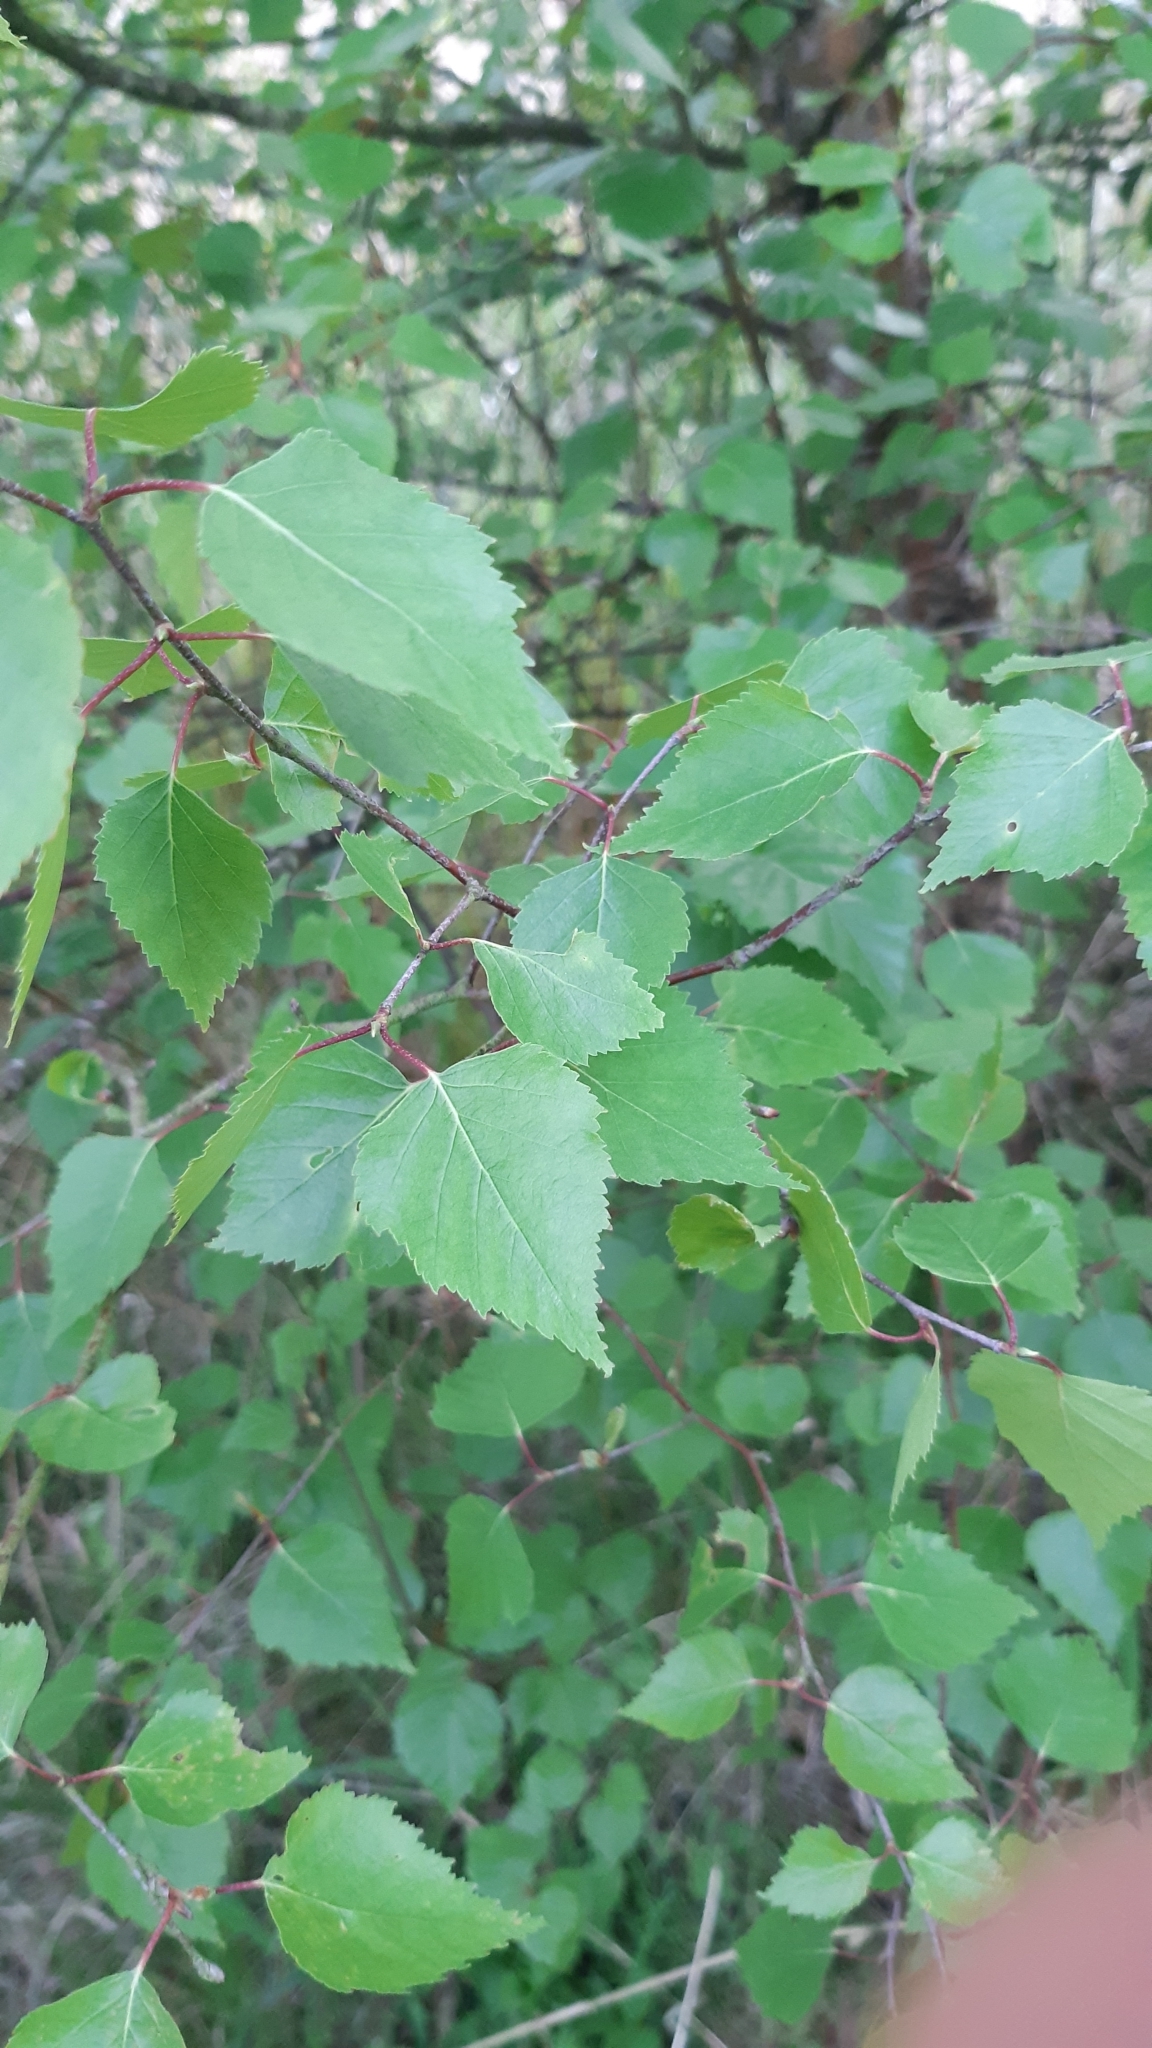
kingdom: Plantae
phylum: Tracheophyta
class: Magnoliopsida
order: Fagales
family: Betulaceae
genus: Betula
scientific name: Betula pendula
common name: Silver birch
